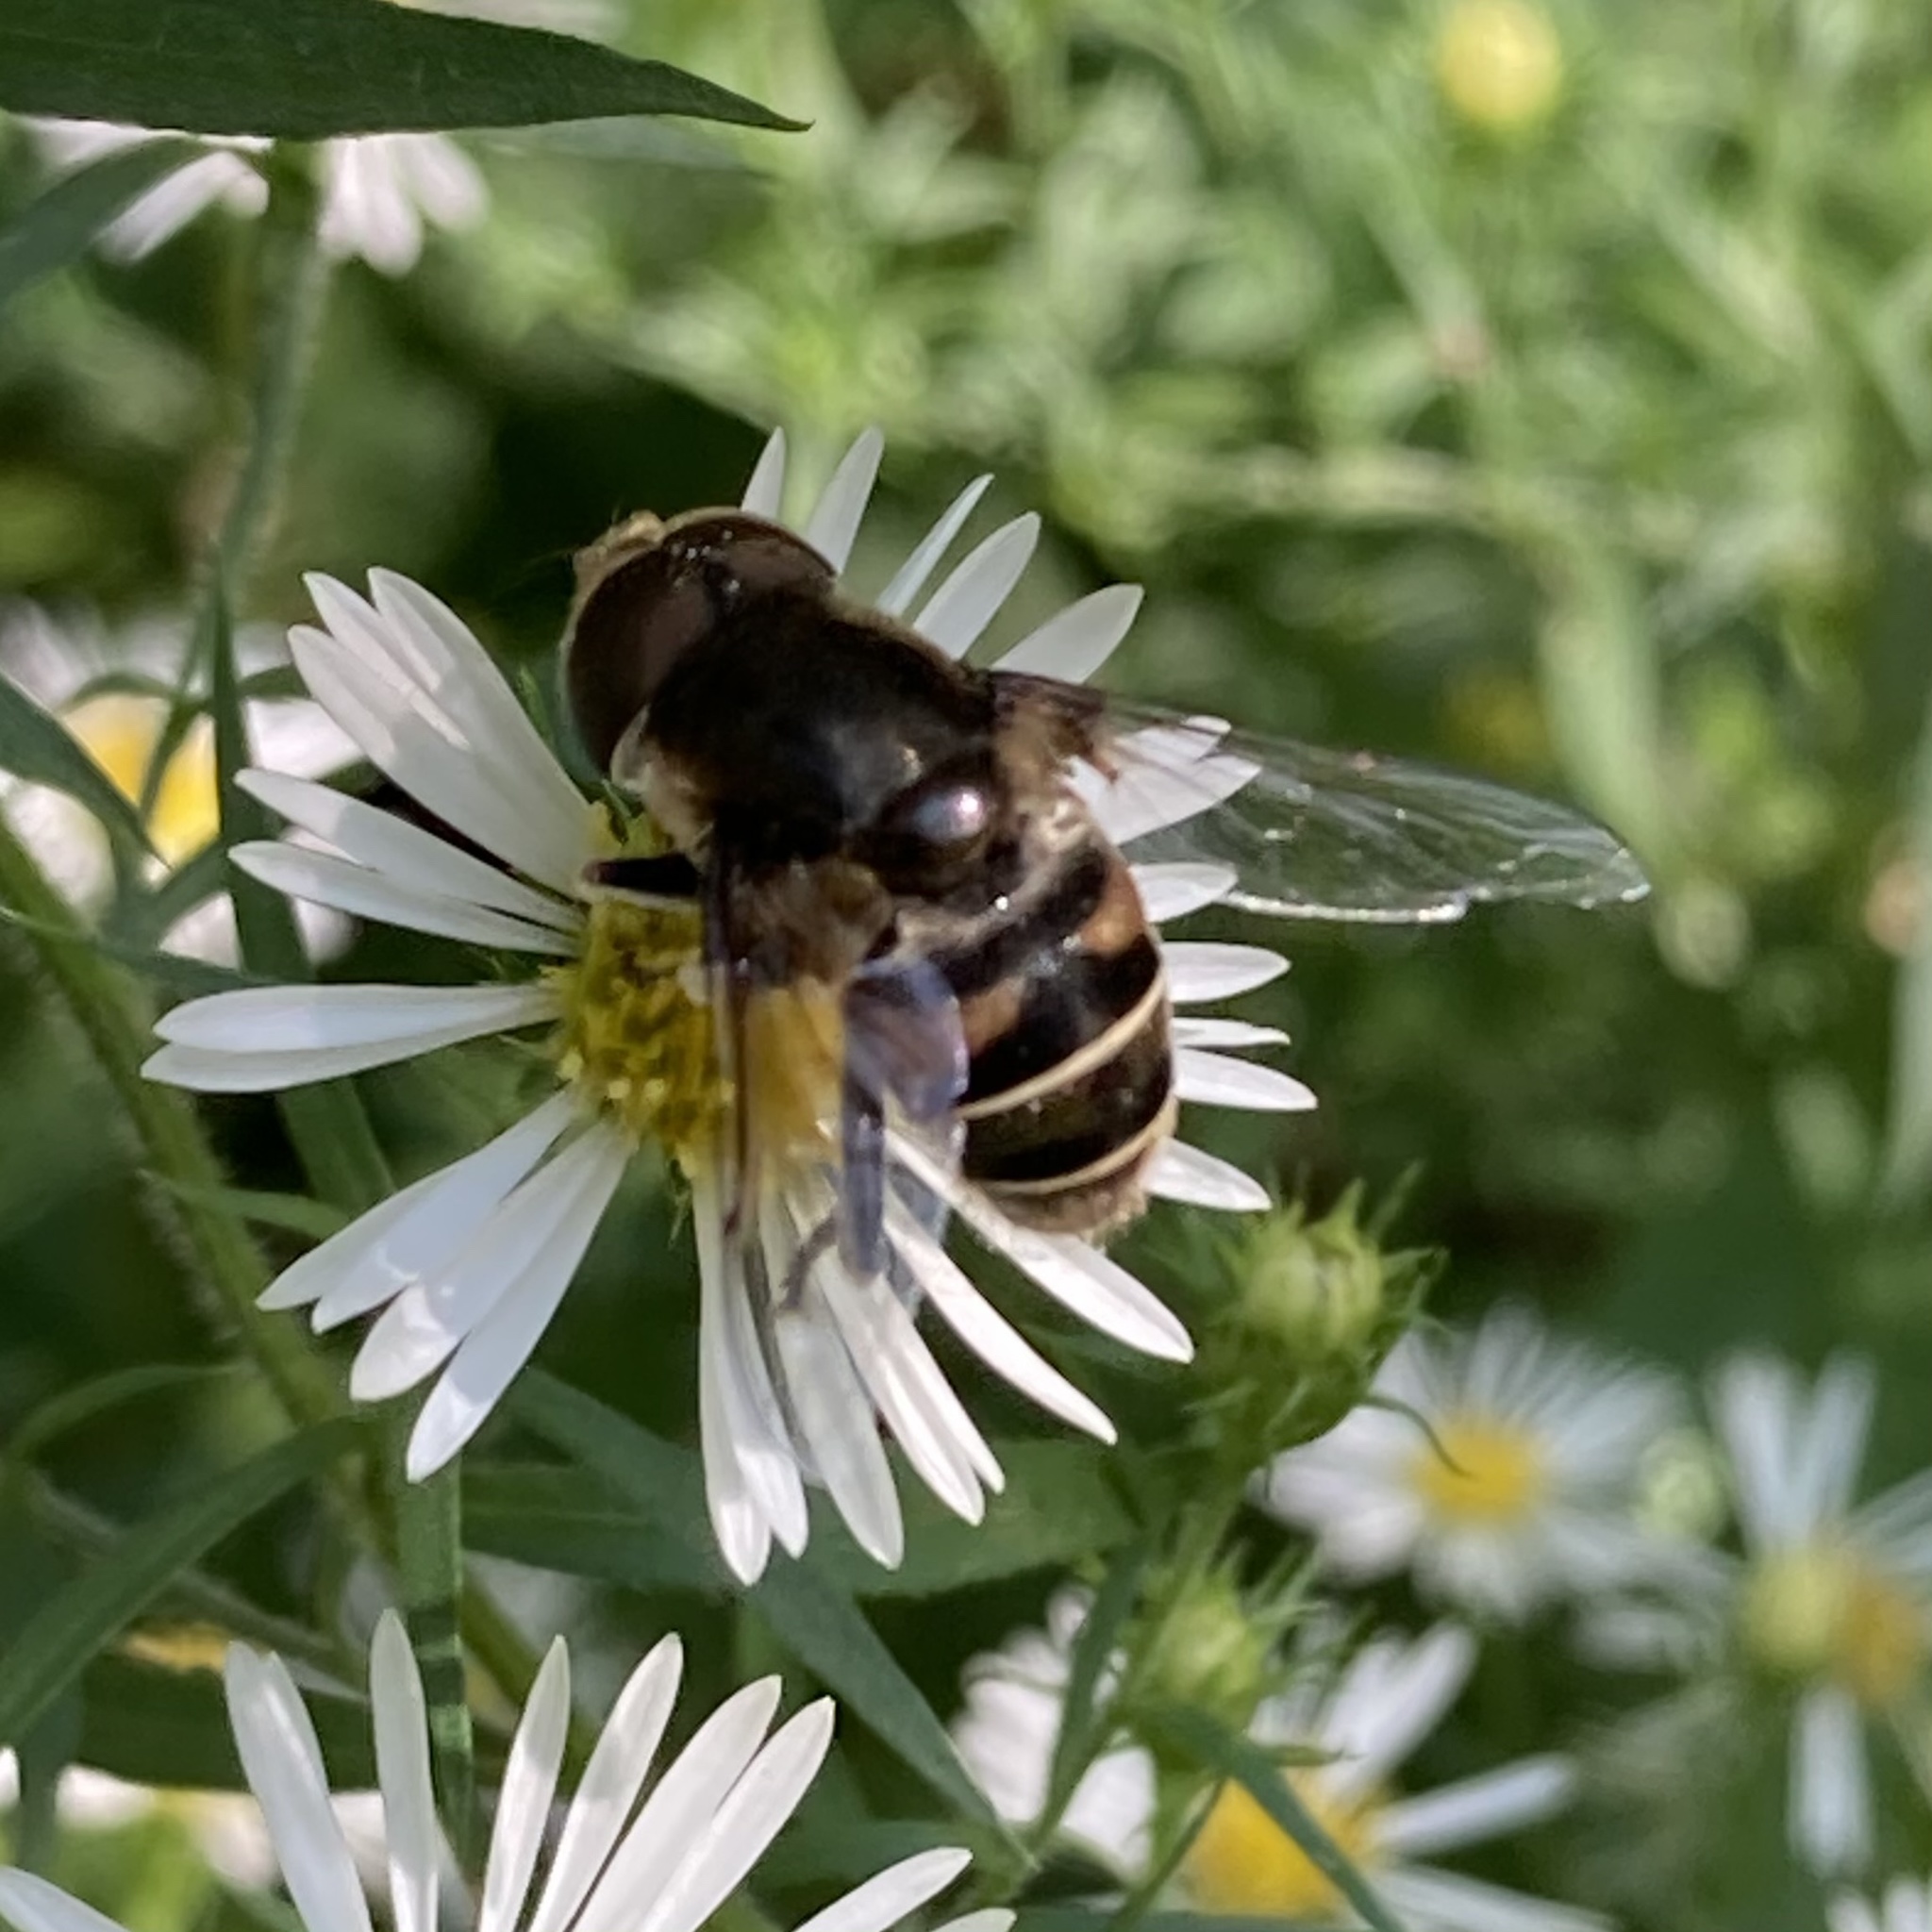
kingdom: Animalia
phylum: Arthropoda
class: Insecta
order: Diptera
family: Syrphidae
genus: Eristalis
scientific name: Eristalis dimidiata
